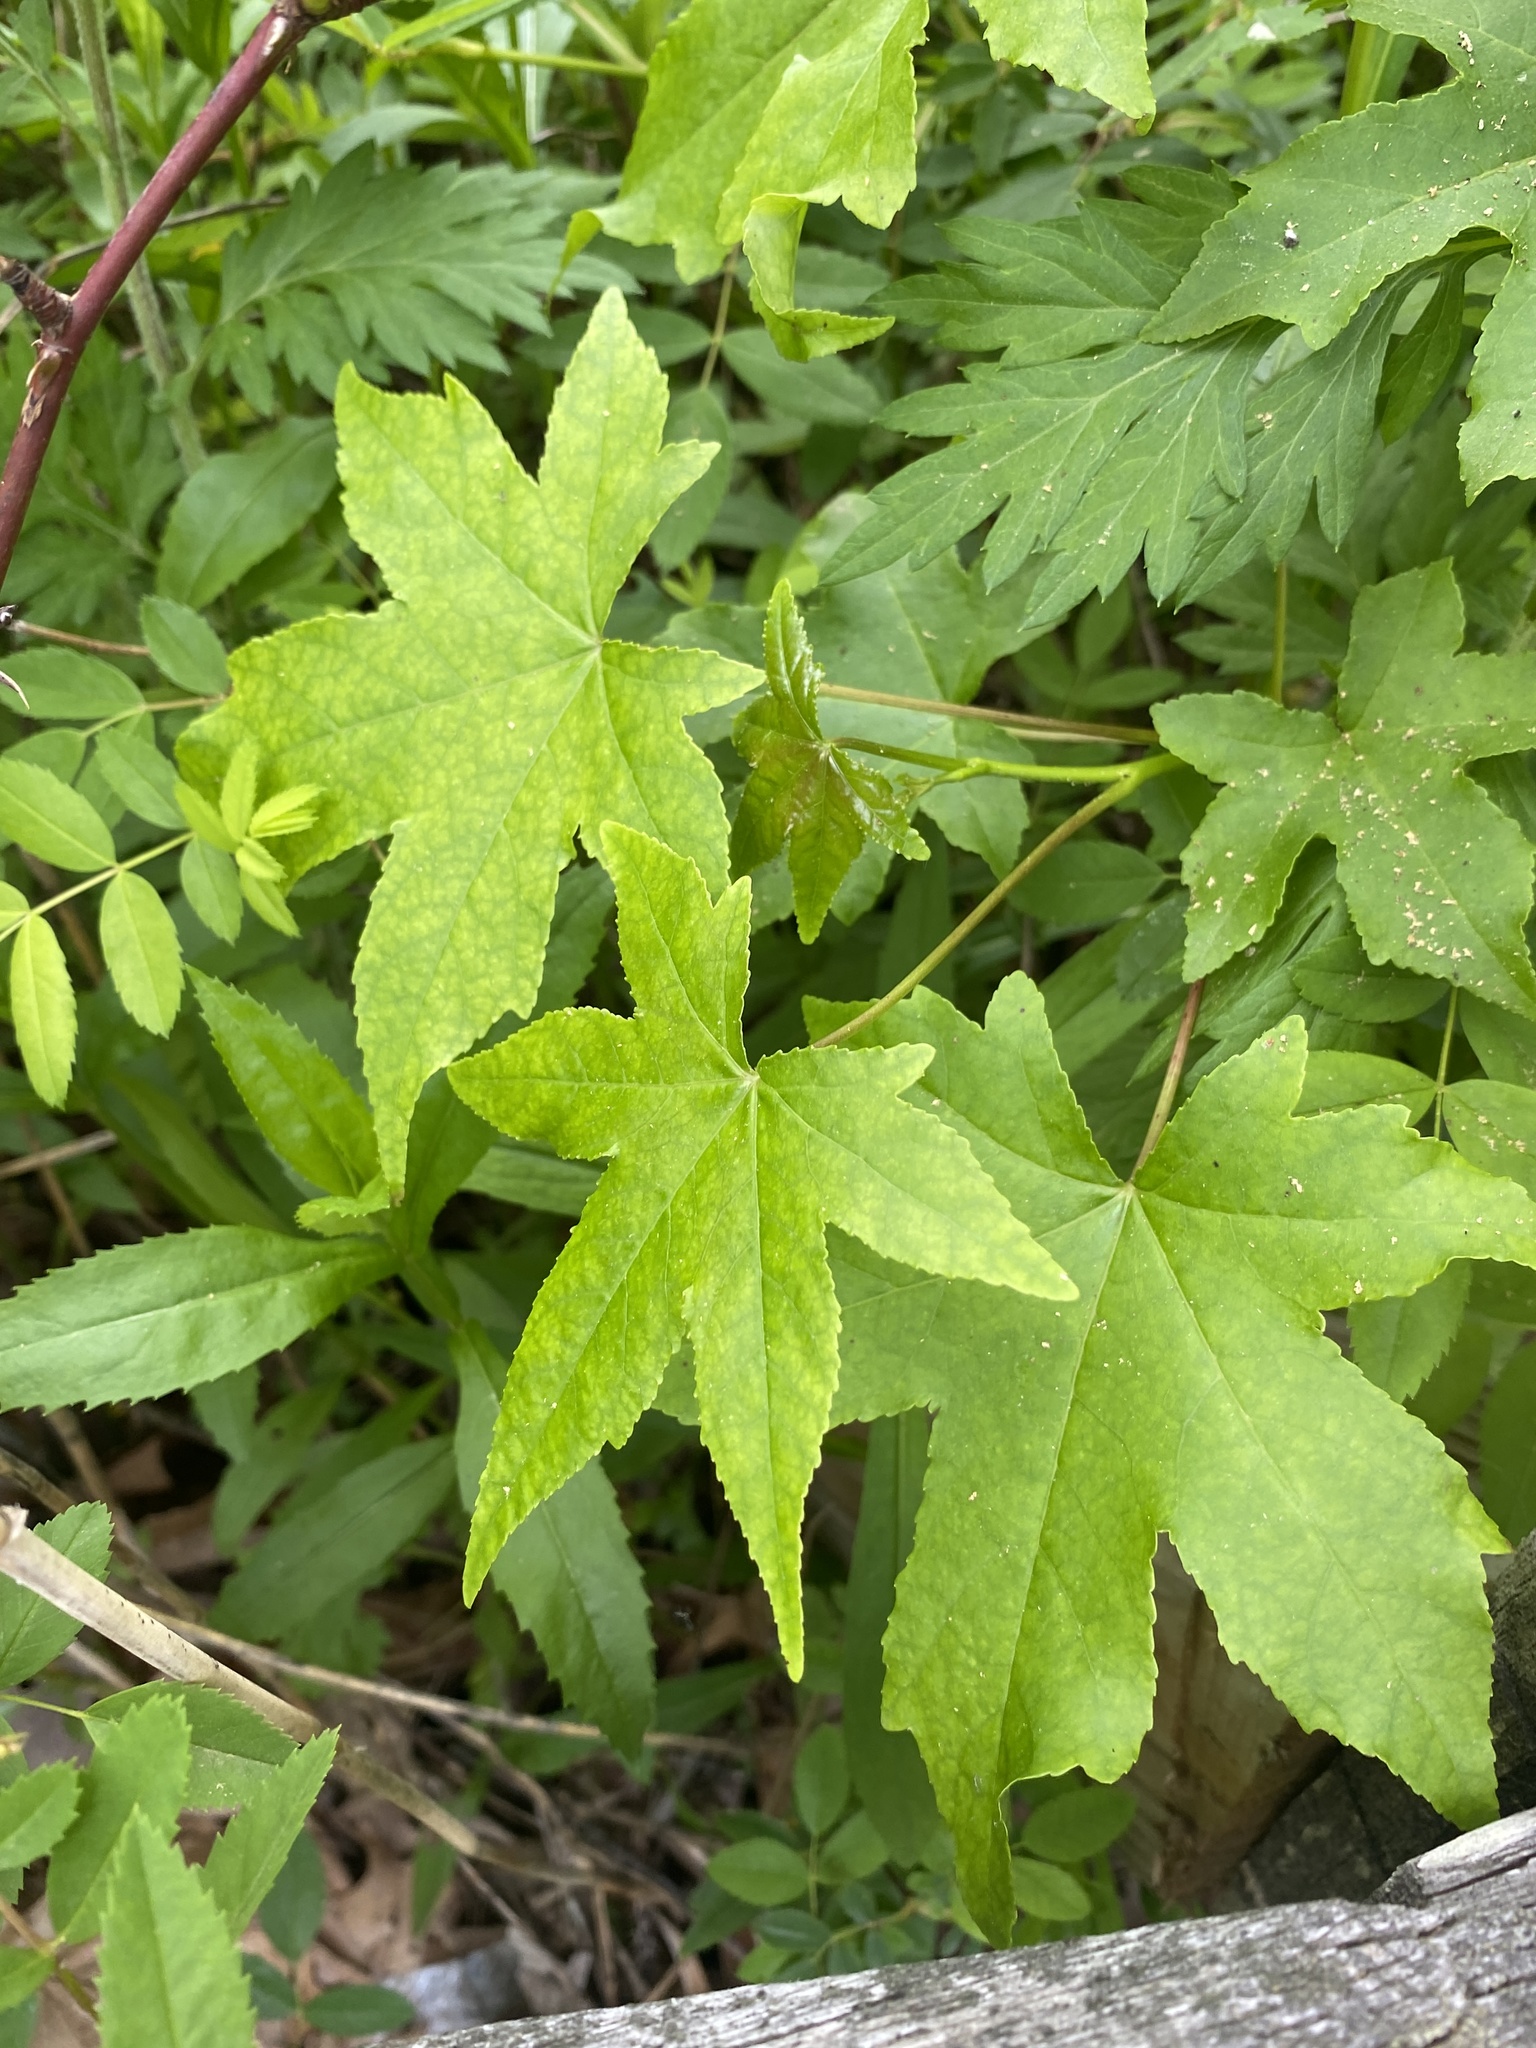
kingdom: Plantae
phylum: Tracheophyta
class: Magnoliopsida
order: Saxifragales
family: Altingiaceae
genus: Liquidambar
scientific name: Liquidambar styraciflua
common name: Sweet gum
